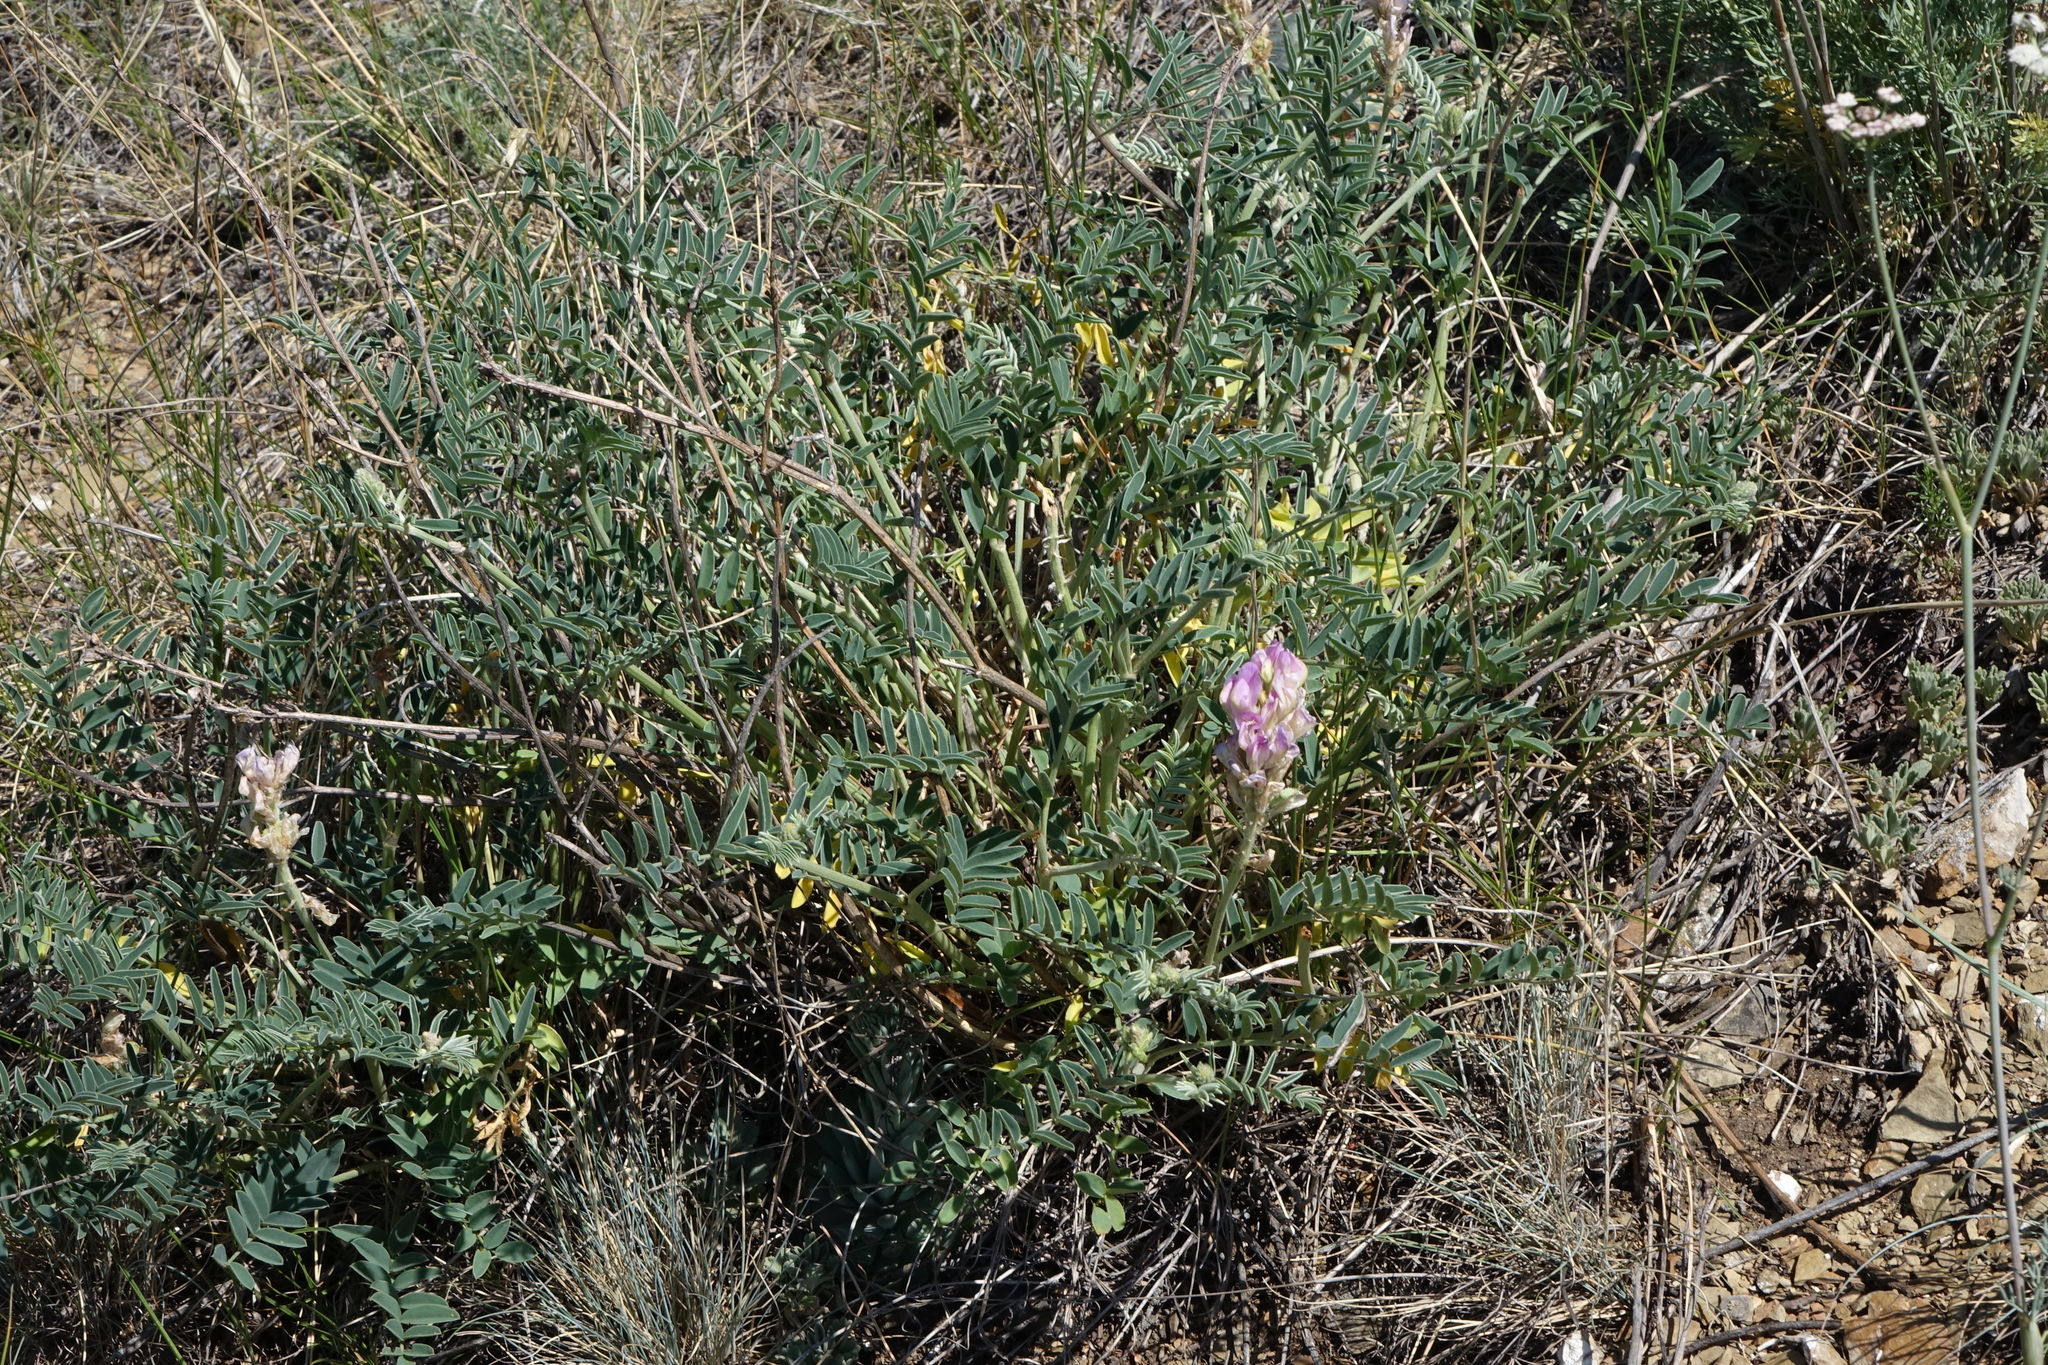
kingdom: Plantae
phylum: Tracheophyta
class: Magnoliopsida
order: Fabales
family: Fabaceae
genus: Hedysarum
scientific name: Hedysarum gmelinii
